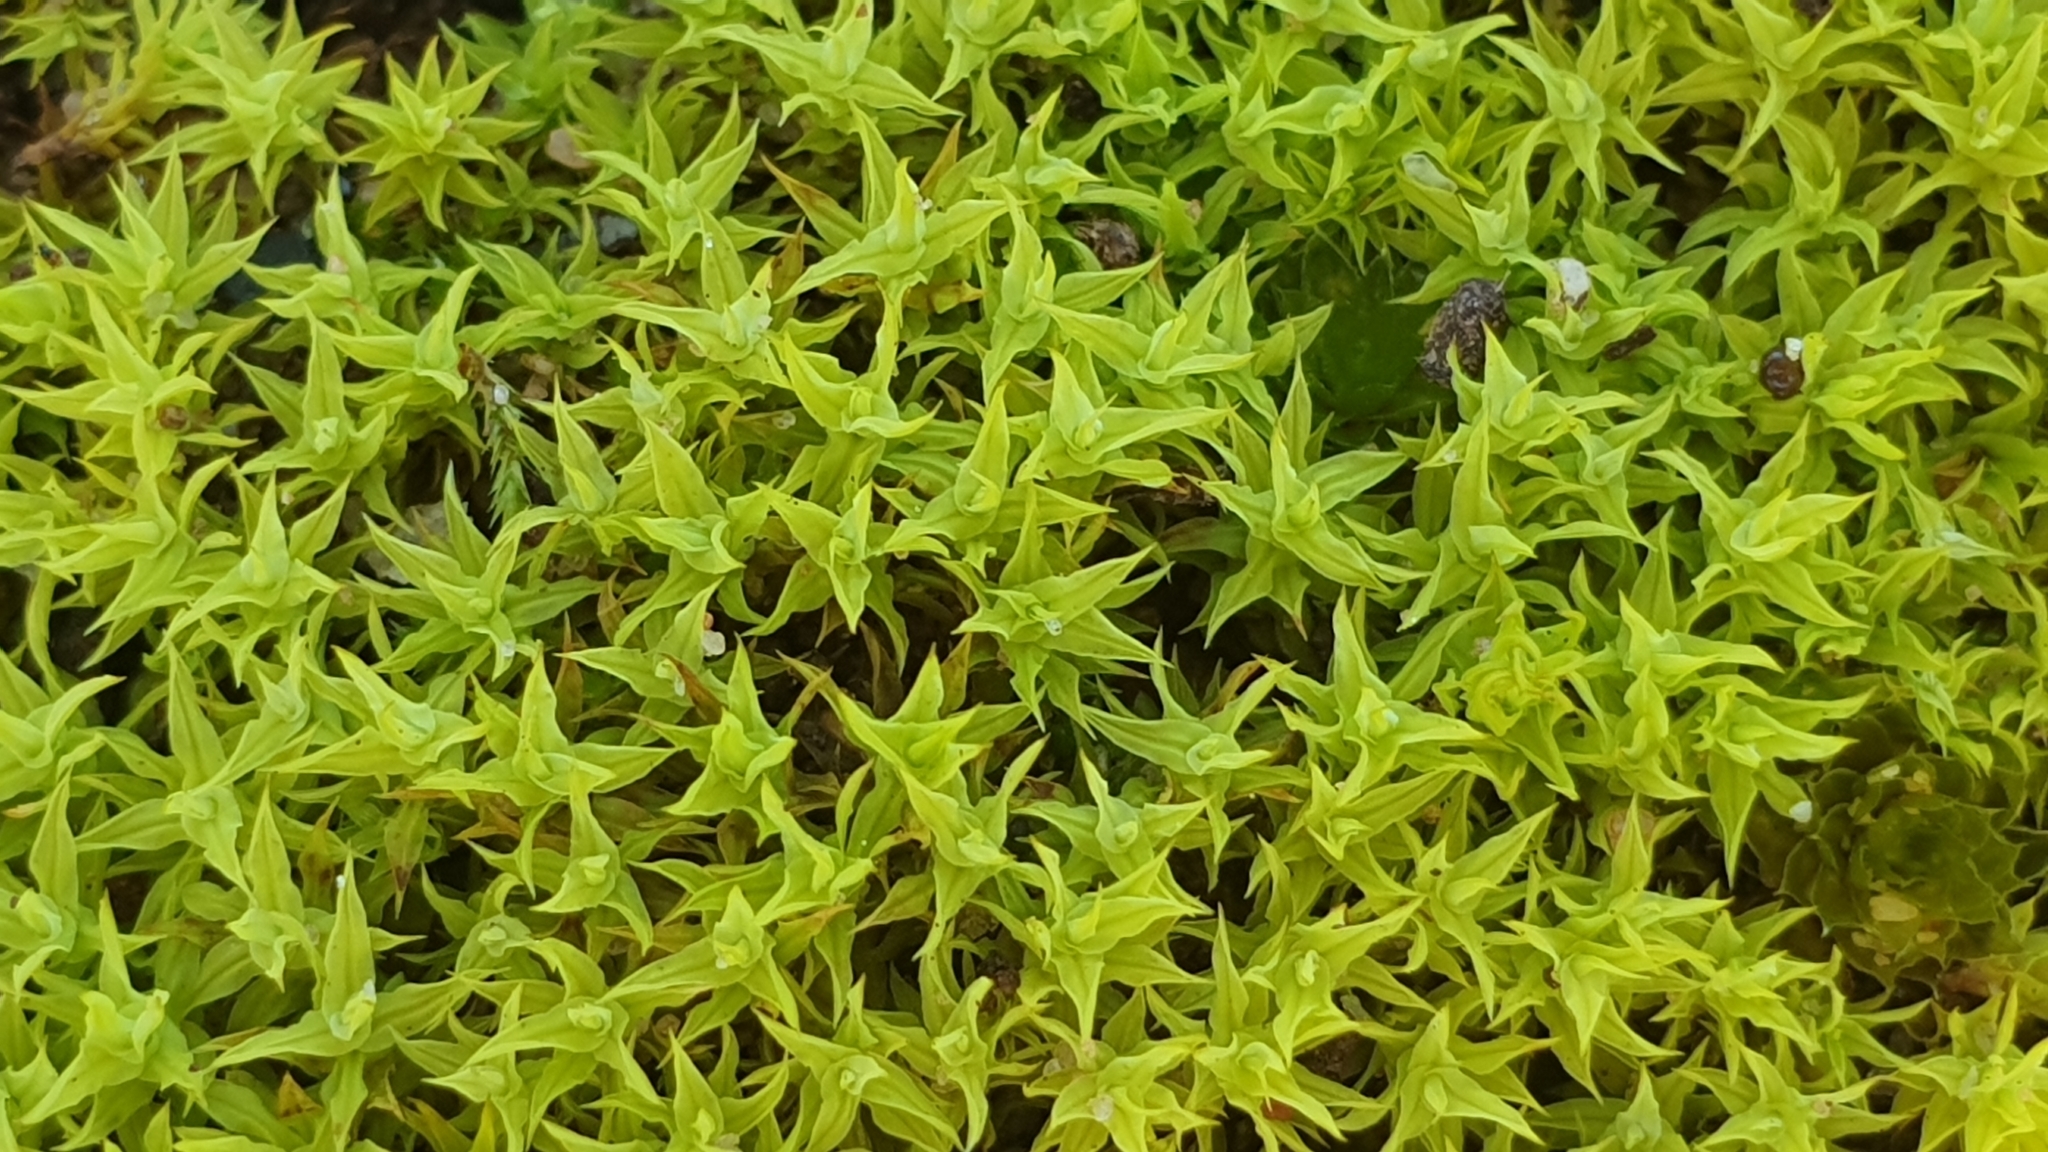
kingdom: Plantae
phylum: Bryophyta
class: Bryopsida
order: Pottiales
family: Pottiaceae
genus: Barbula
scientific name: Barbula calycina
